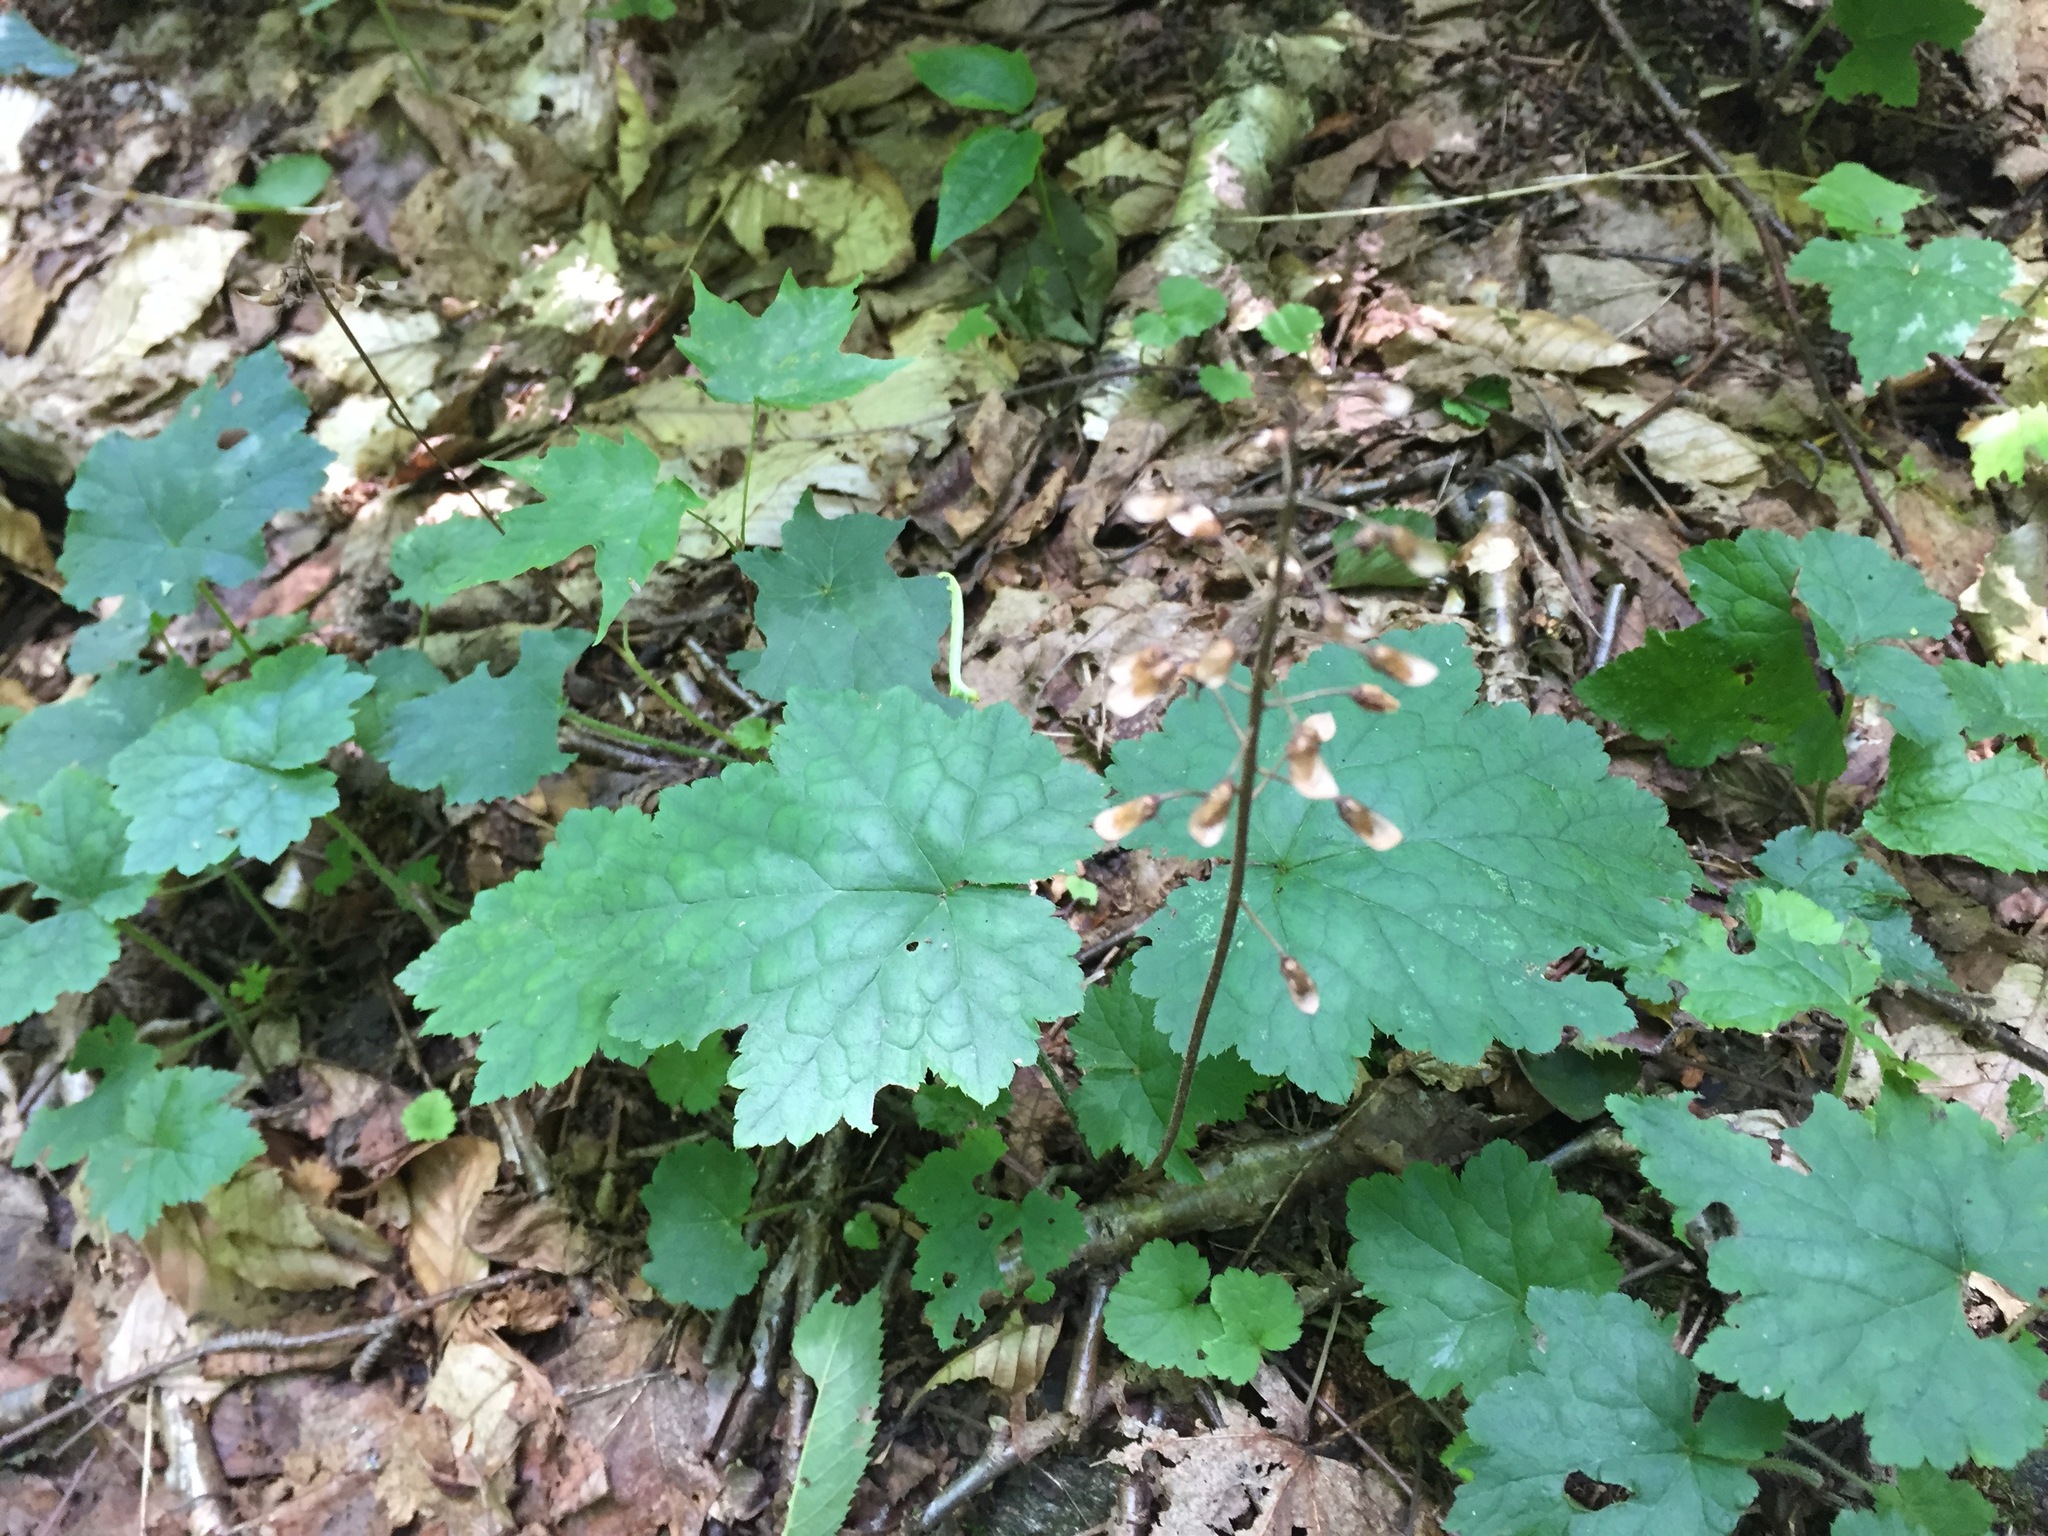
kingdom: Plantae
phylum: Tracheophyta
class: Magnoliopsida
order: Saxifragales
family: Saxifragaceae
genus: Tiarella
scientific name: Tiarella stolonifera
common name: Stoloniferous foamflower
